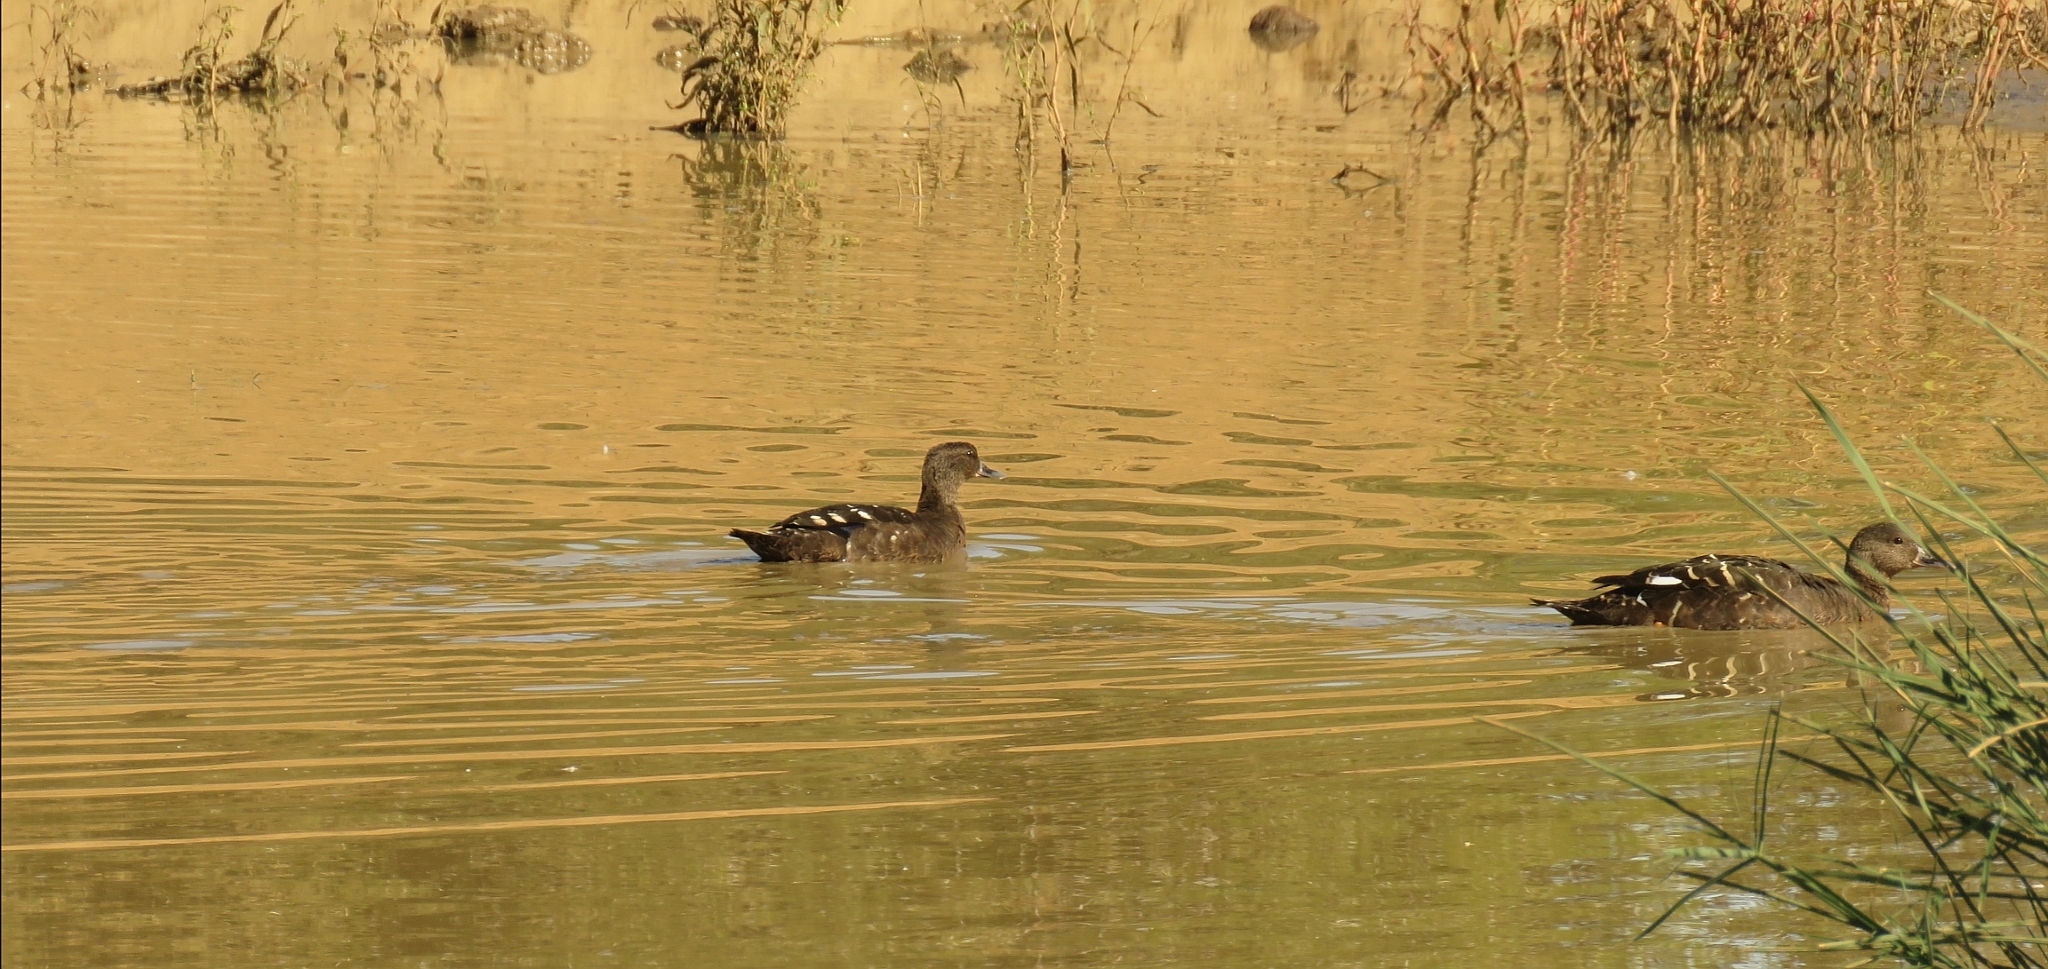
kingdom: Animalia
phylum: Chordata
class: Aves
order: Anseriformes
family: Anatidae
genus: Anas
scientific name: Anas sparsa
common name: African black duck
